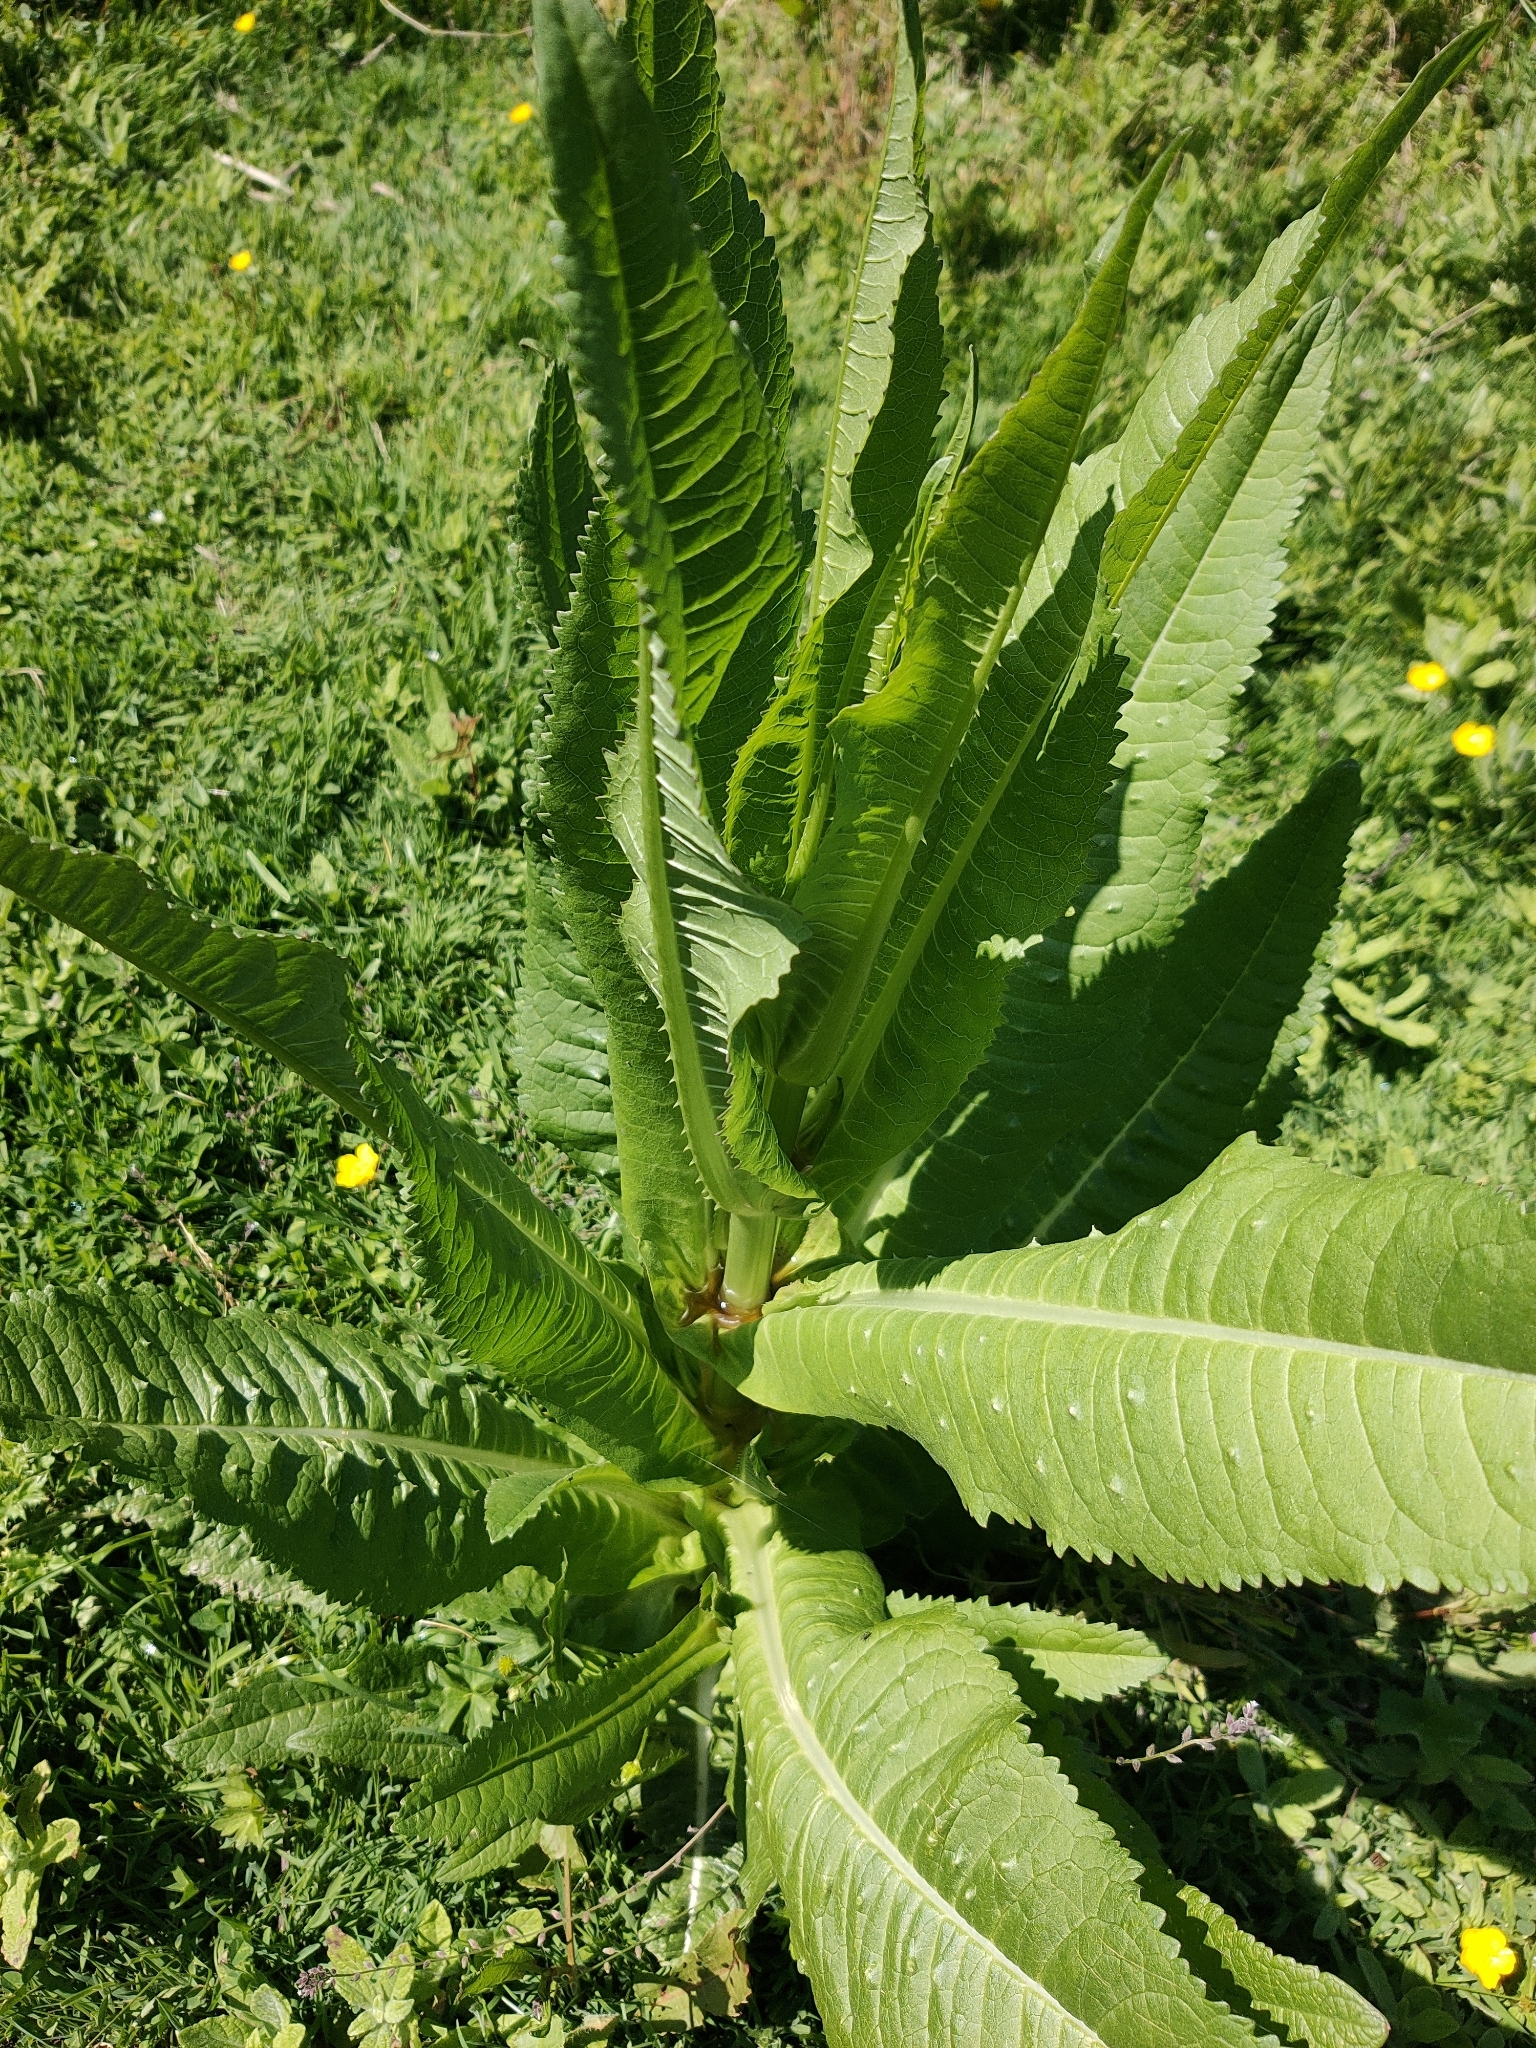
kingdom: Plantae
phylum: Tracheophyta
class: Magnoliopsida
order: Dipsacales
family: Caprifoliaceae
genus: Dipsacus
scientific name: Dipsacus fullonum
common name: Teasel
